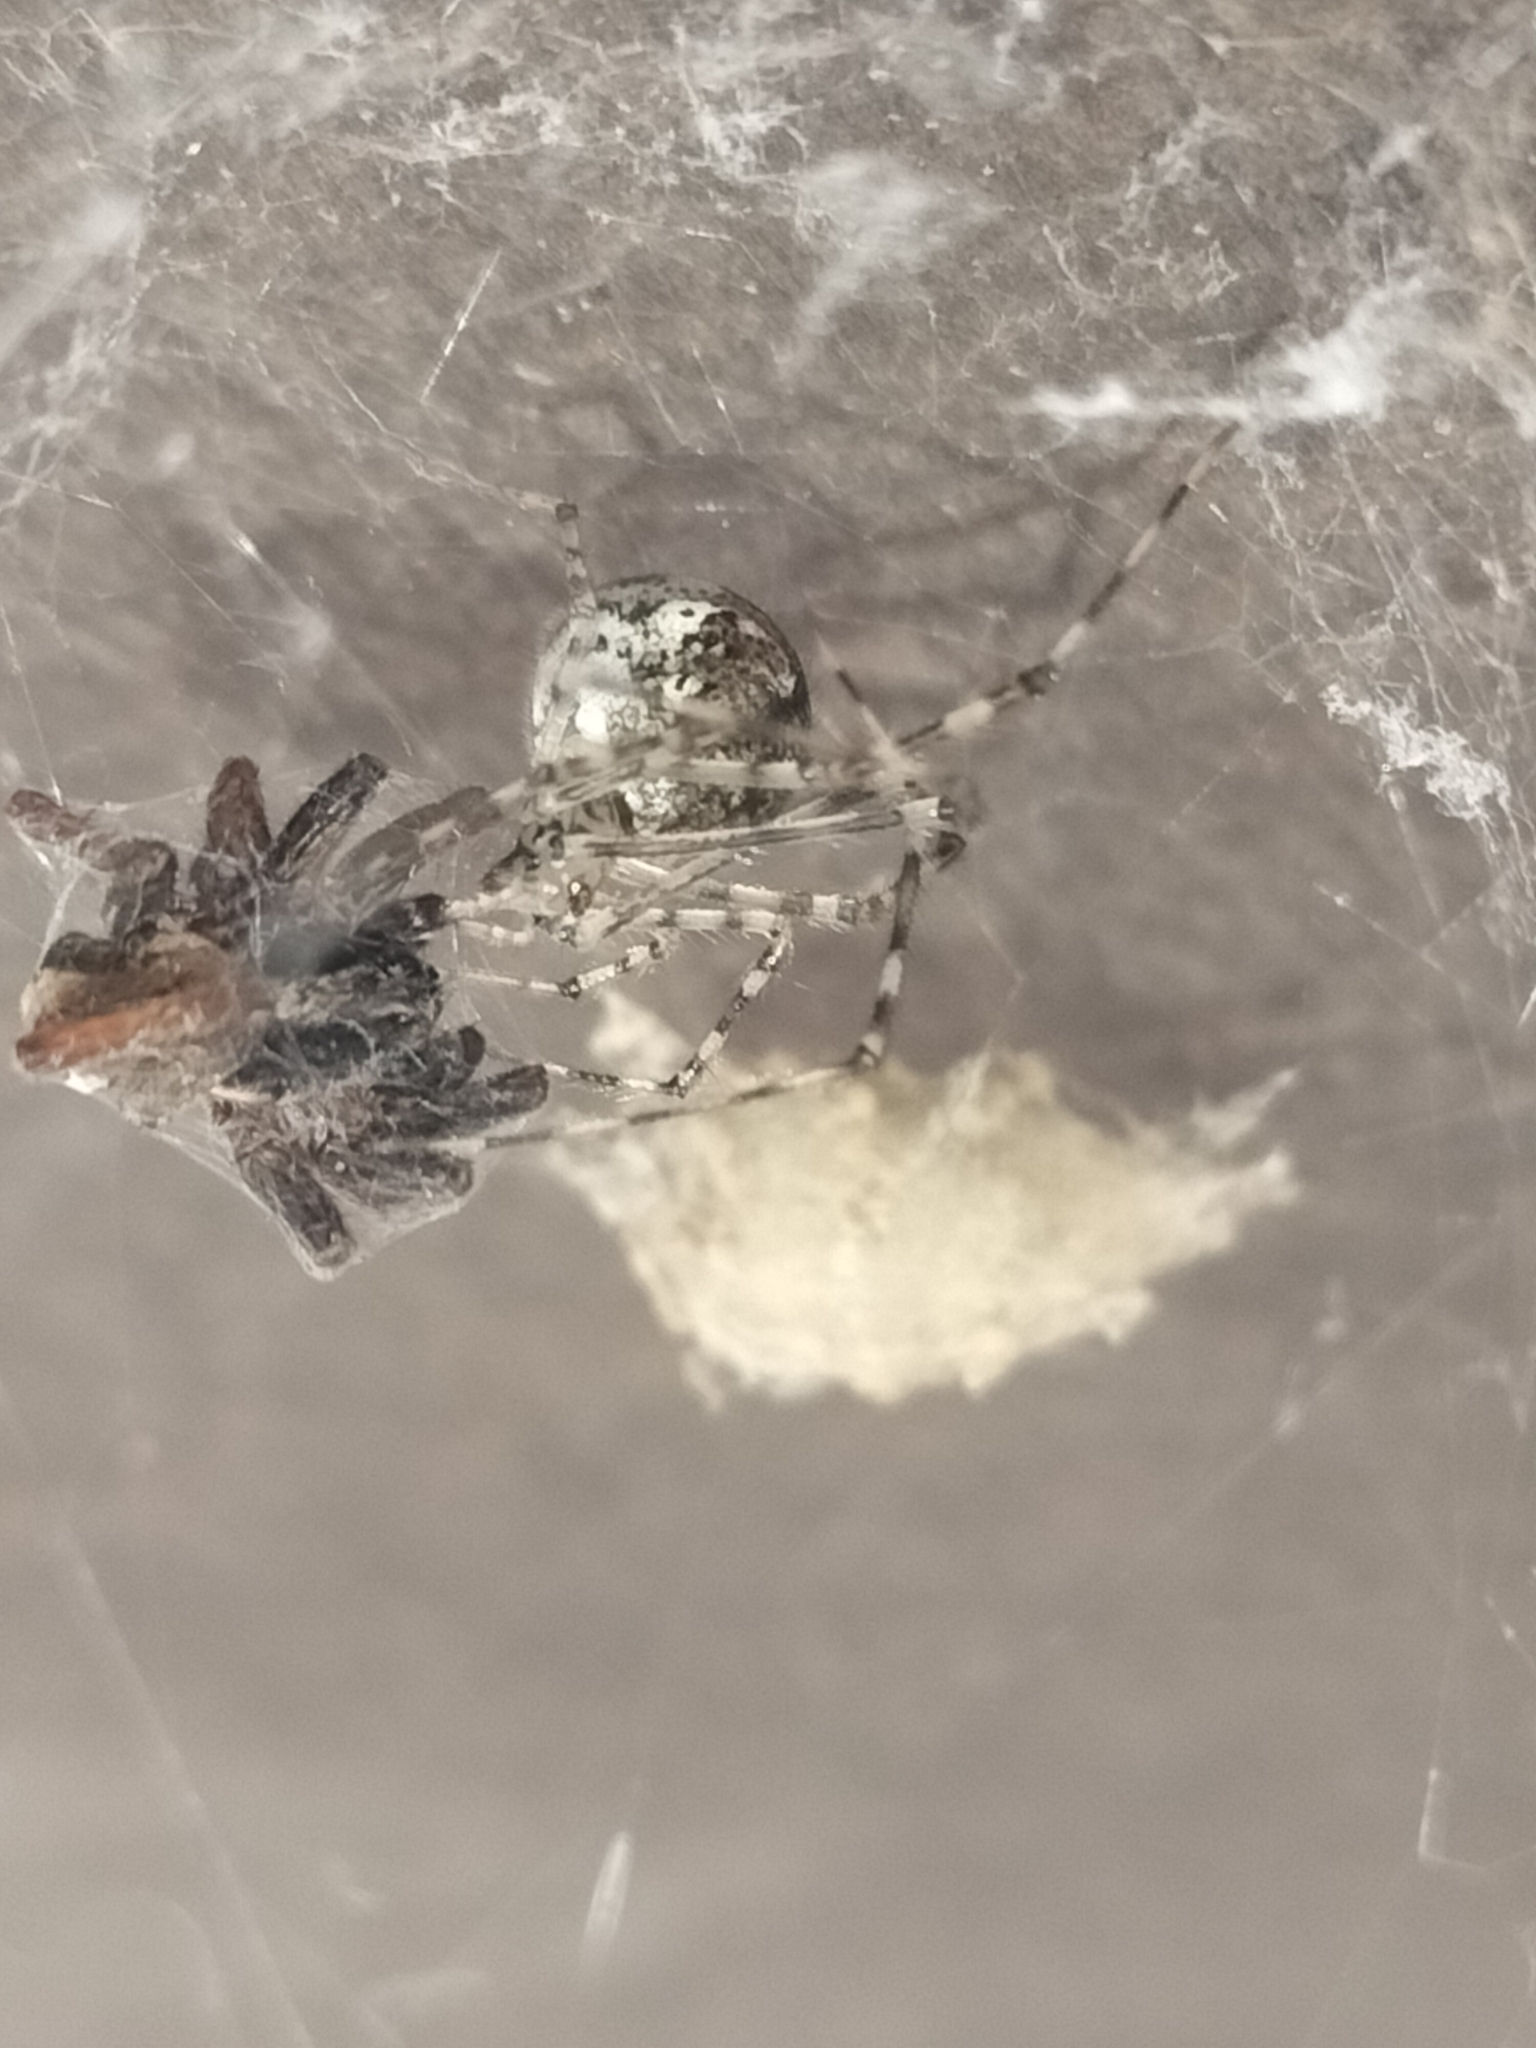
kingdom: Animalia
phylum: Arthropoda
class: Arachnida
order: Araneae
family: Theridiidae
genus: Cryptachaea
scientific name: Cryptachaea gigantipes
